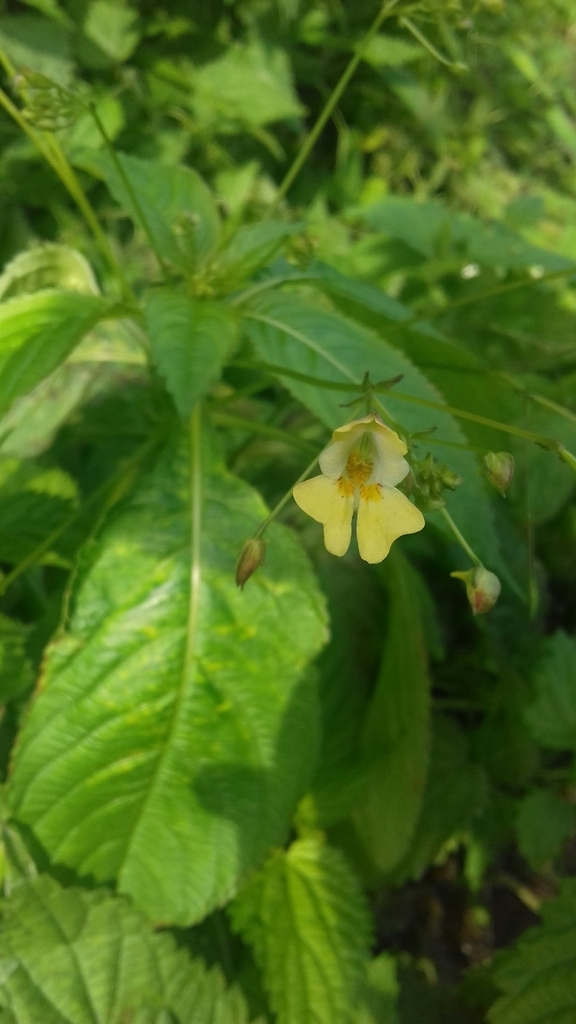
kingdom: Plantae
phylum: Tracheophyta
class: Magnoliopsida
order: Ericales
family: Balsaminaceae
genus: Impatiens
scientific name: Impatiens parviflora
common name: Small balsam
